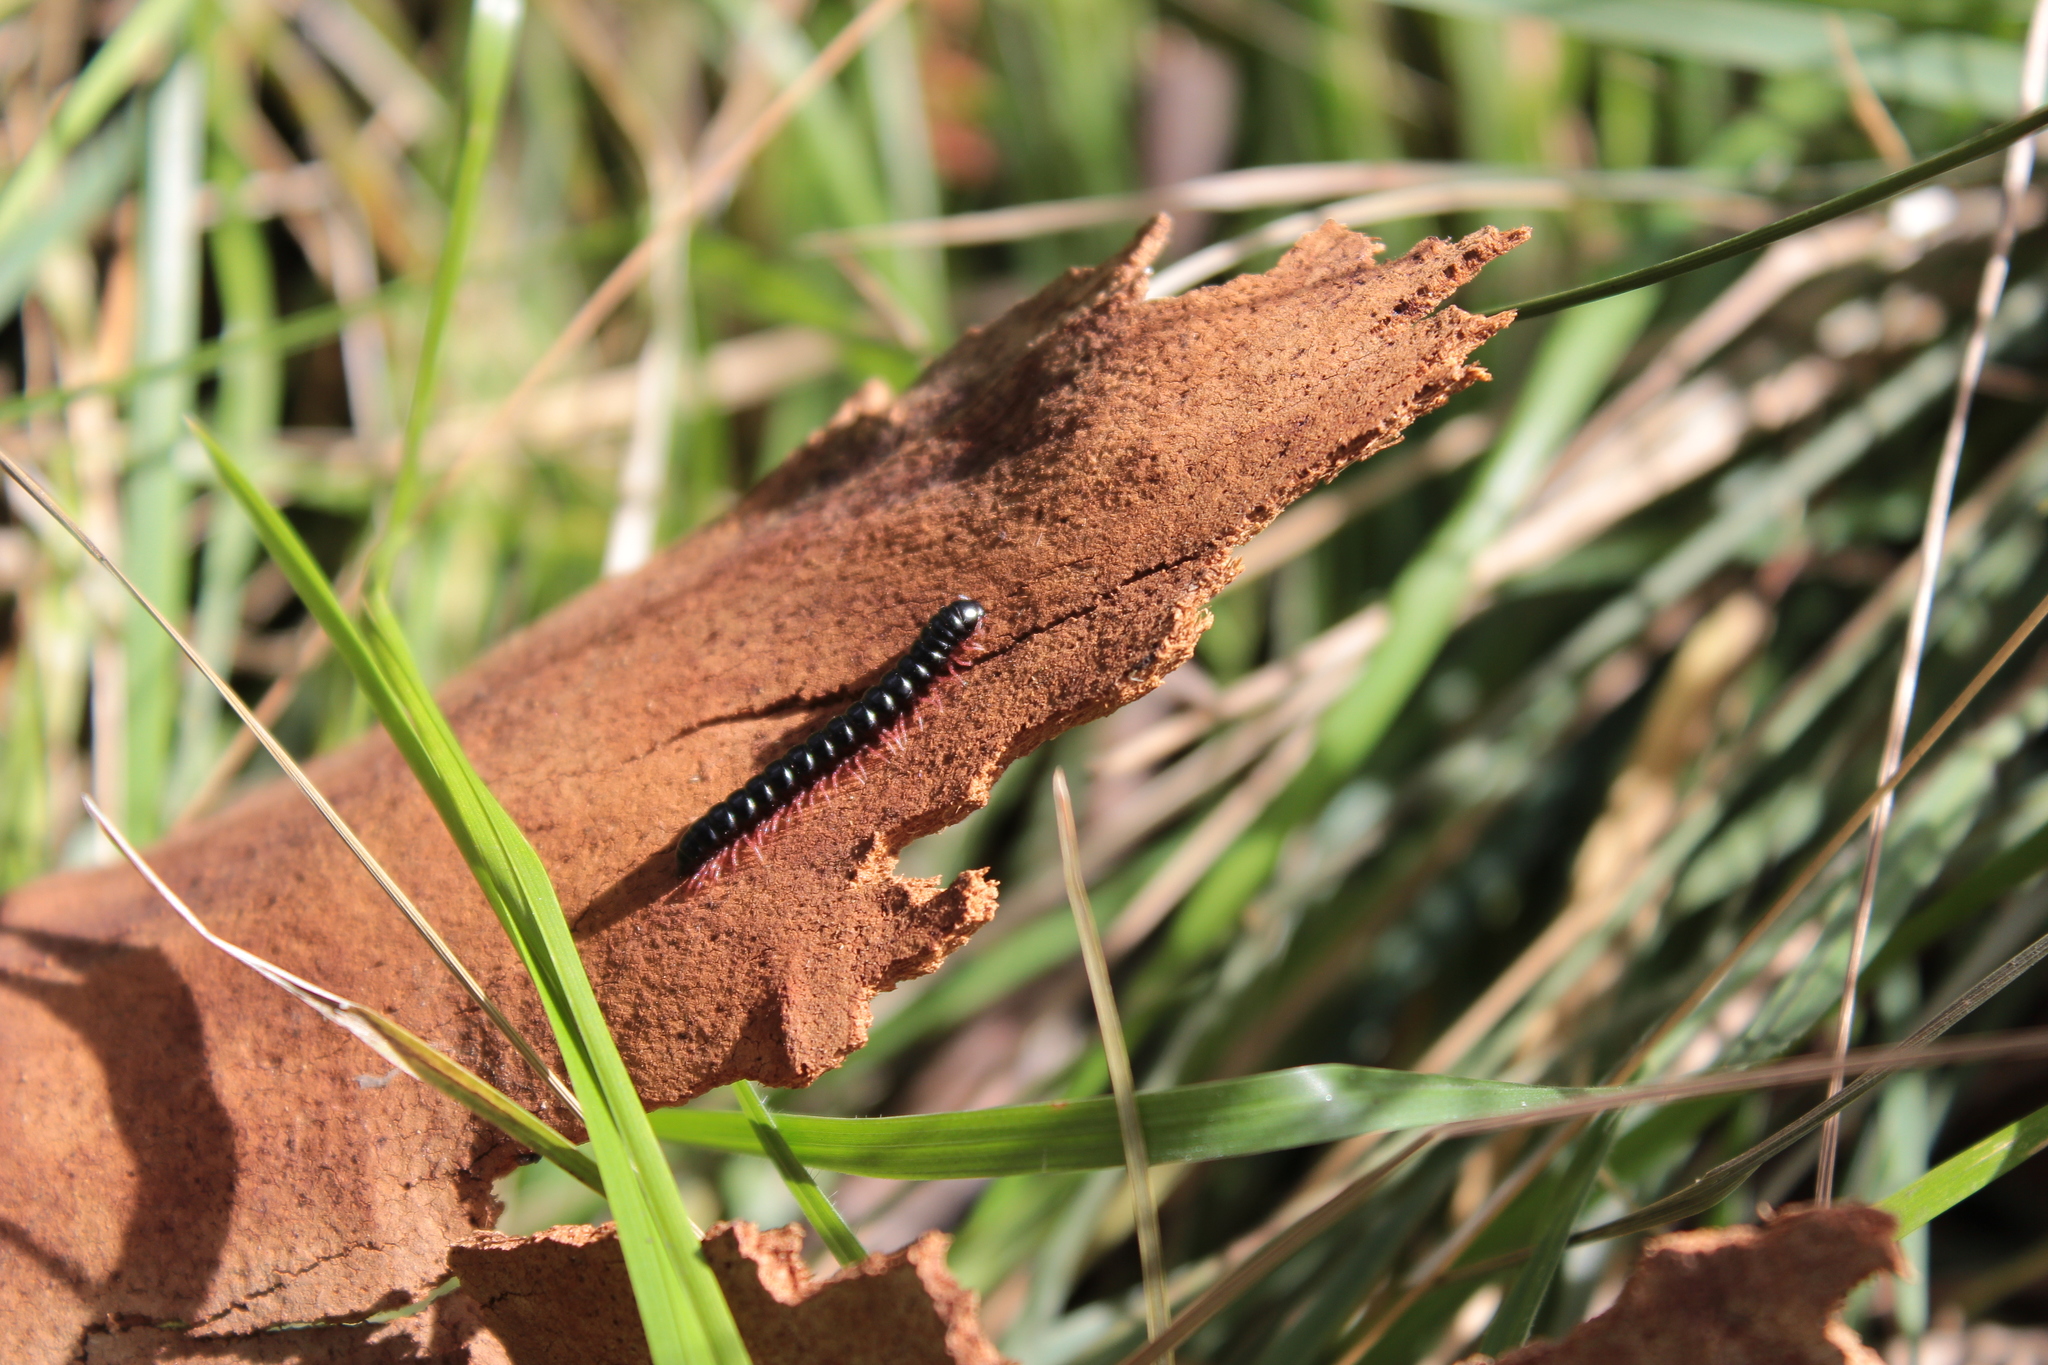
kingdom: Animalia
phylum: Arthropoda
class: Diplopoda
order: Polydesmida
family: Paradoxosomatidae
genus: Heterocladosoma
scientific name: Heterocladosoma
